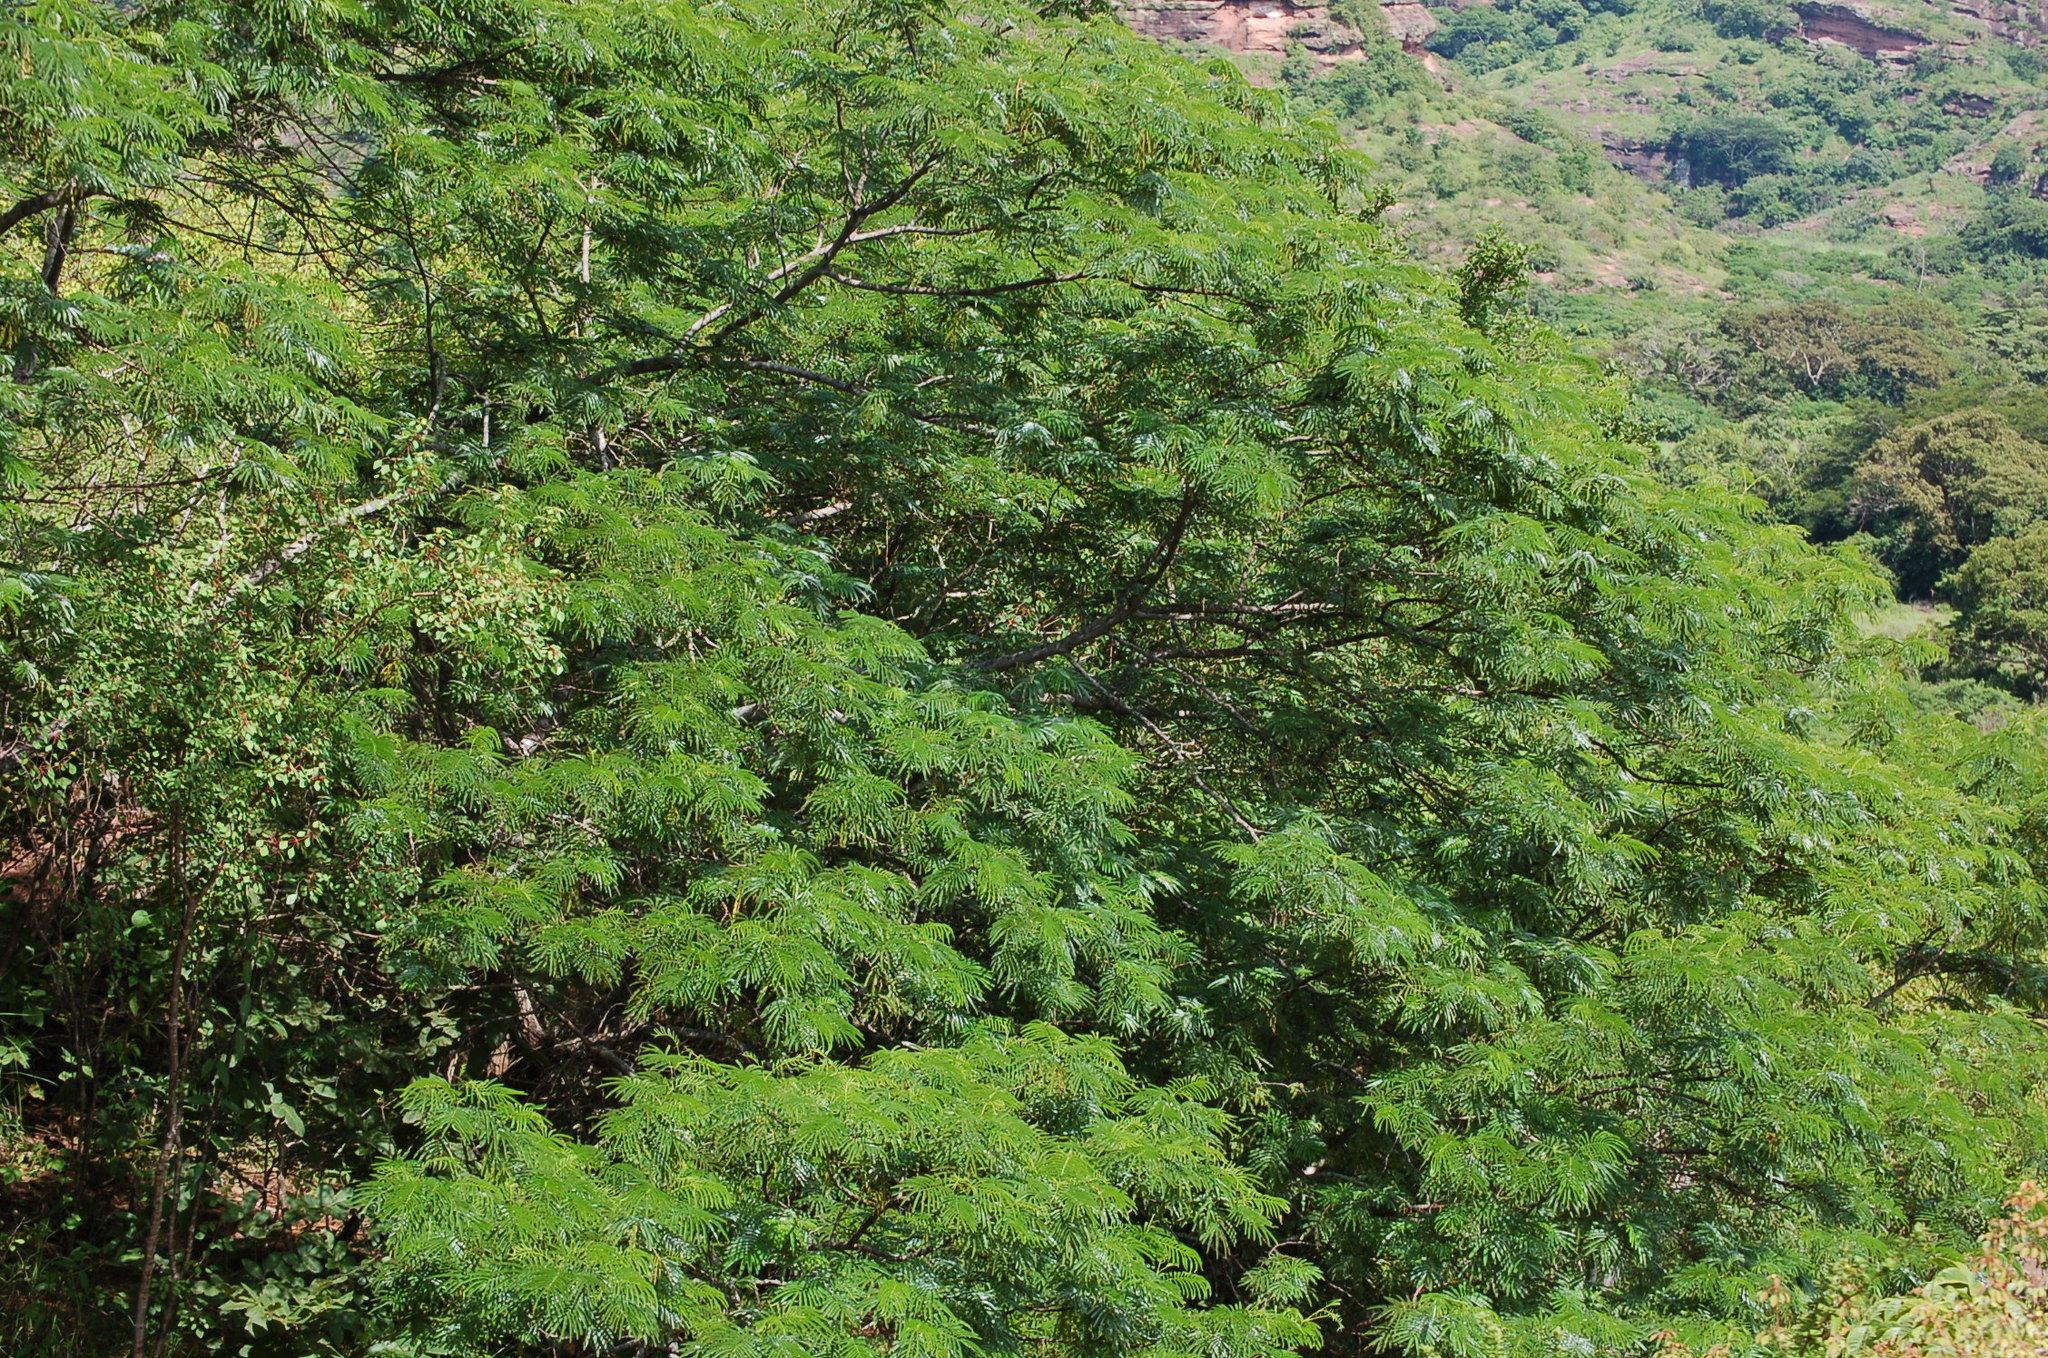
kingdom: Plantae
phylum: Tracheophyta
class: Magnoliopsida
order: Fabales
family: Fabaceae
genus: Poeppigia
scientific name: Poeppigia procera
